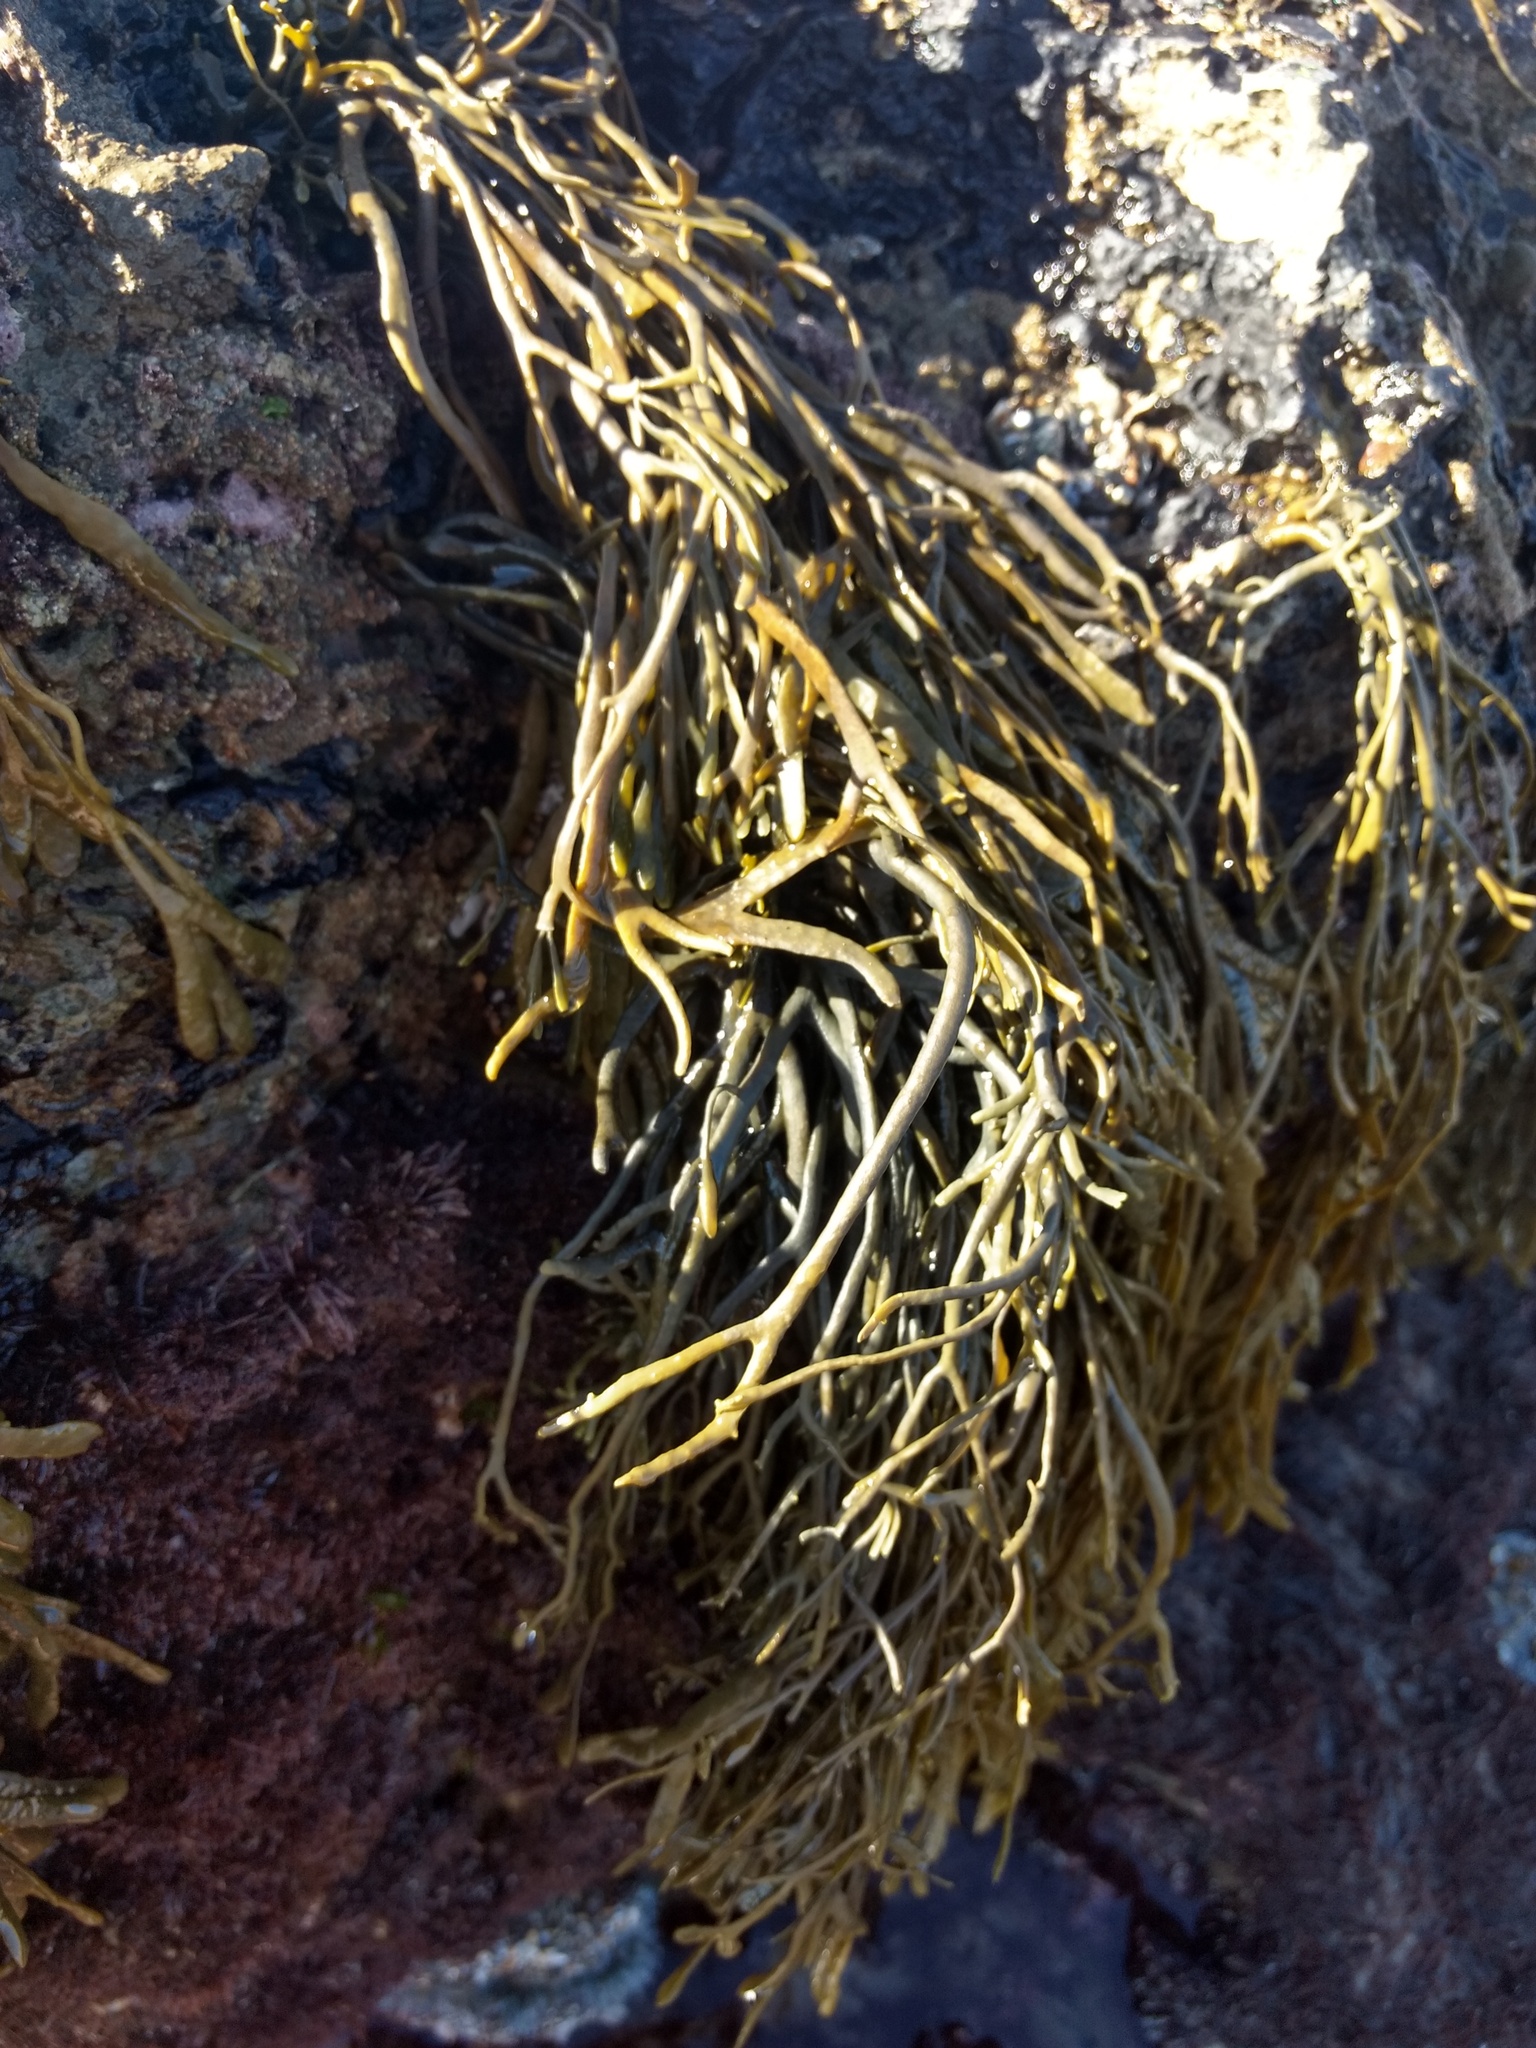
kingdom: Chromista
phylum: Ochrophyta
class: Phaeophyceae
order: Fucales
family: Fucaceae
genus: Silvetia
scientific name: Silvetia
